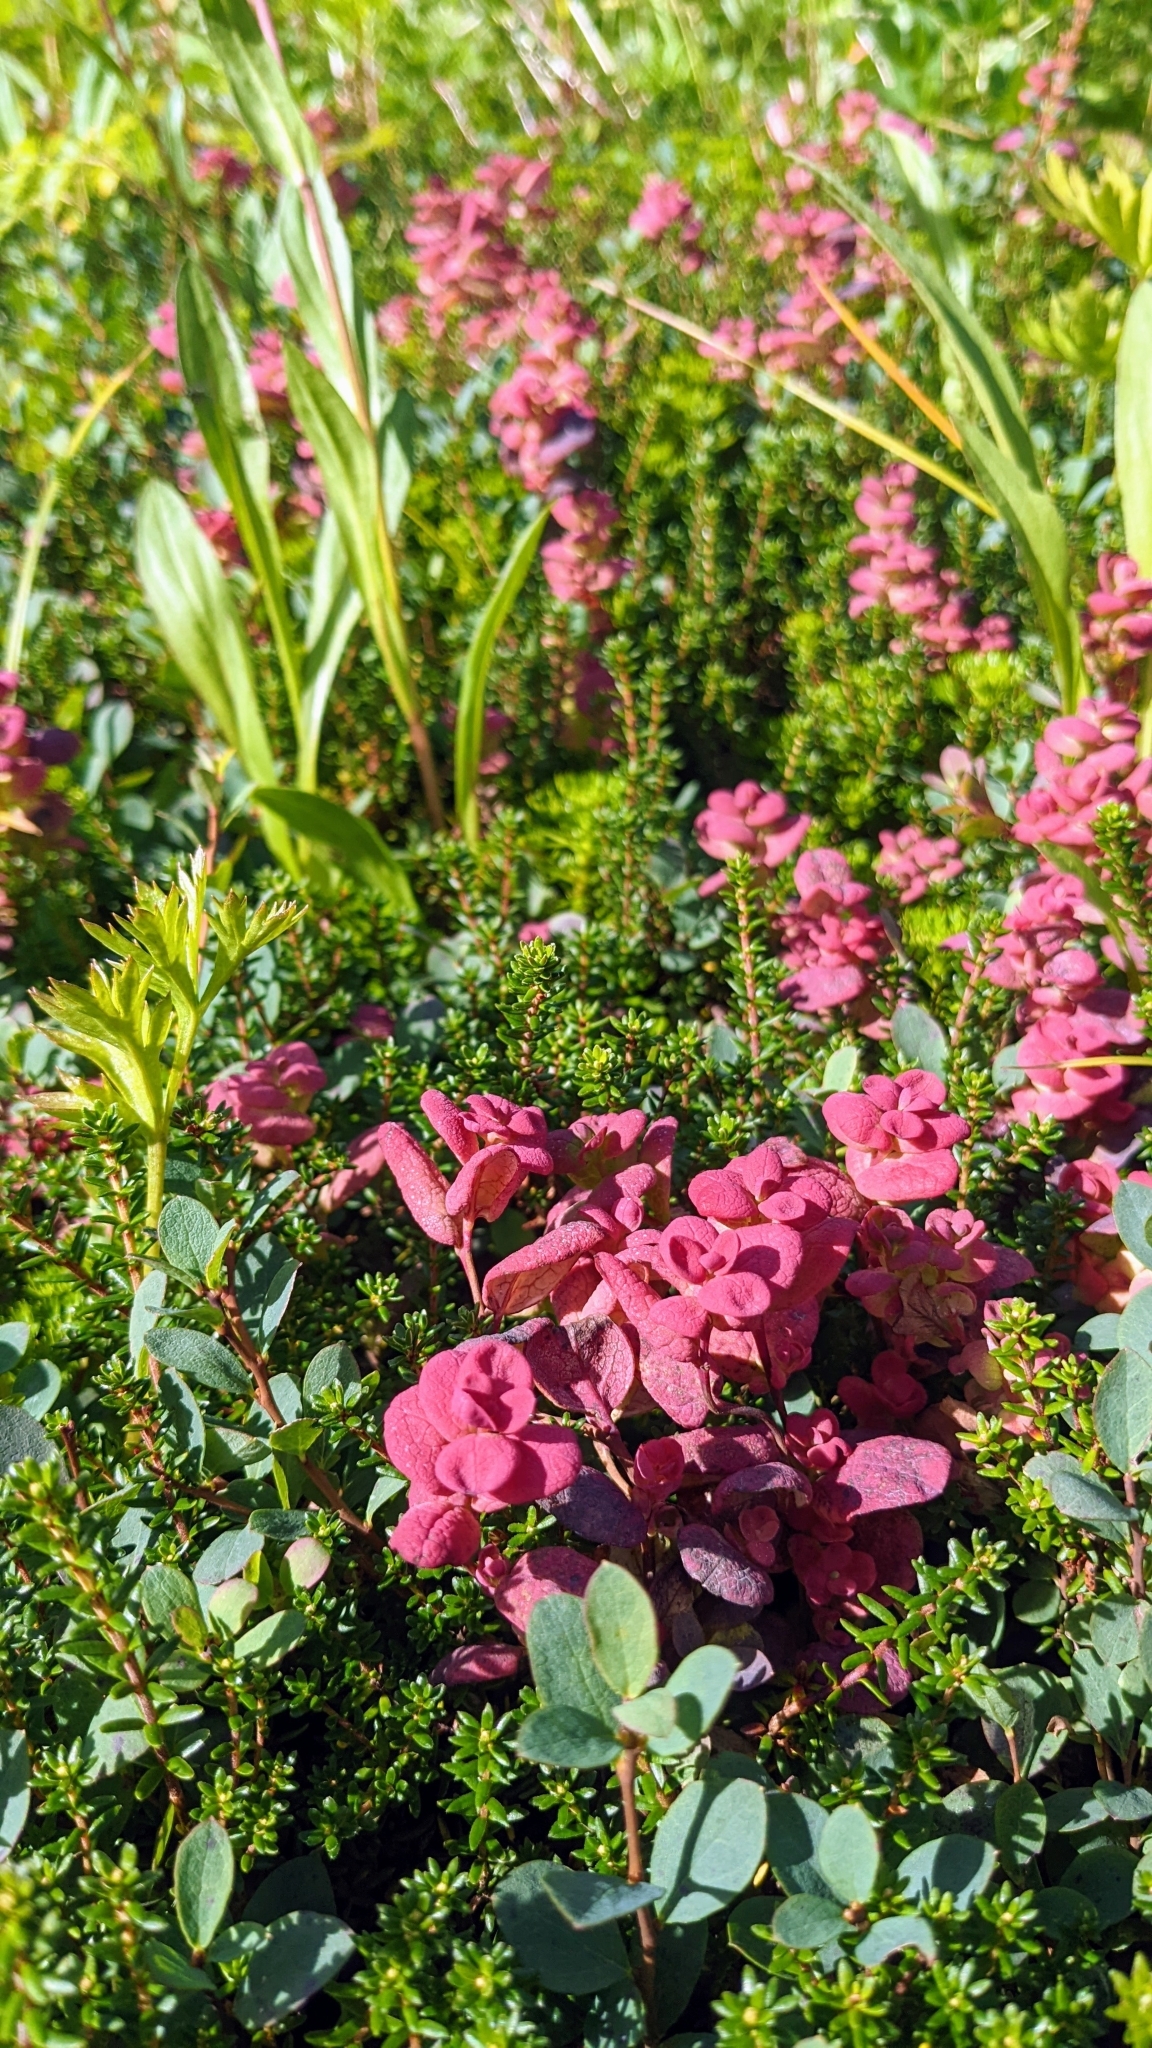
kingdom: Fungi
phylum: Basidiomycota
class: Exobasidiomycetes
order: Exobasidiales
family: Exobasidiaceae
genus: Exobasidium
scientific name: Exobasidium vaccinii-uliginosi
